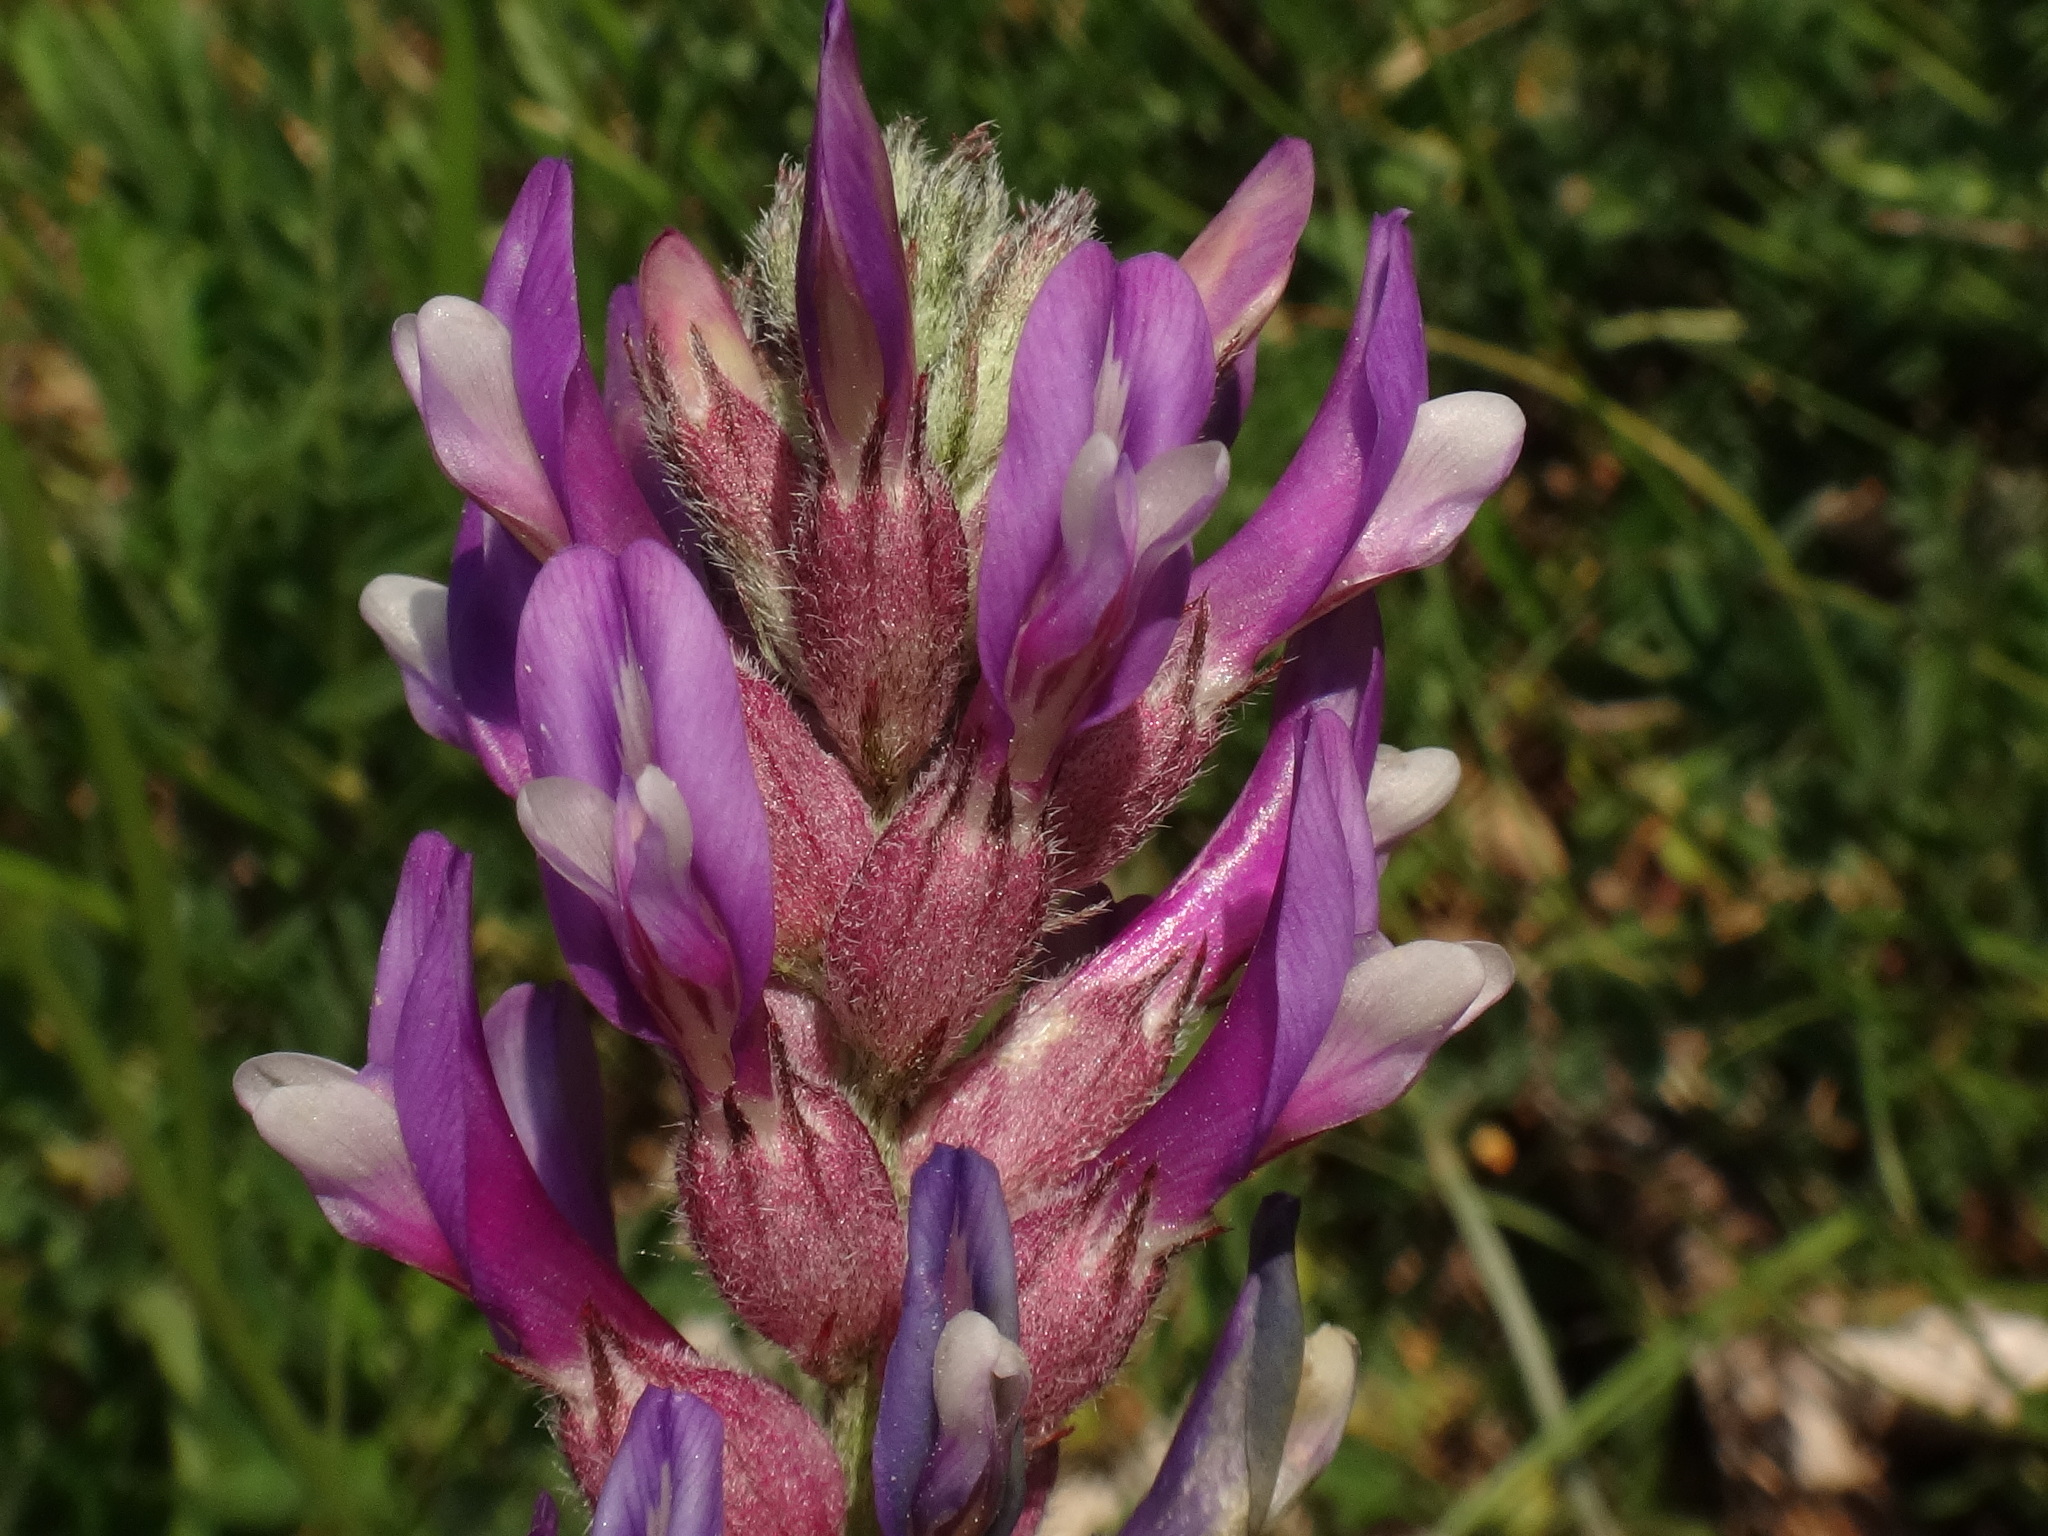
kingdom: Plantae
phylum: Tracheophyta
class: Magnoliopsida
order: Fabales
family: Fabaceae
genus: Astragalus
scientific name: Astragalus vesicarius
